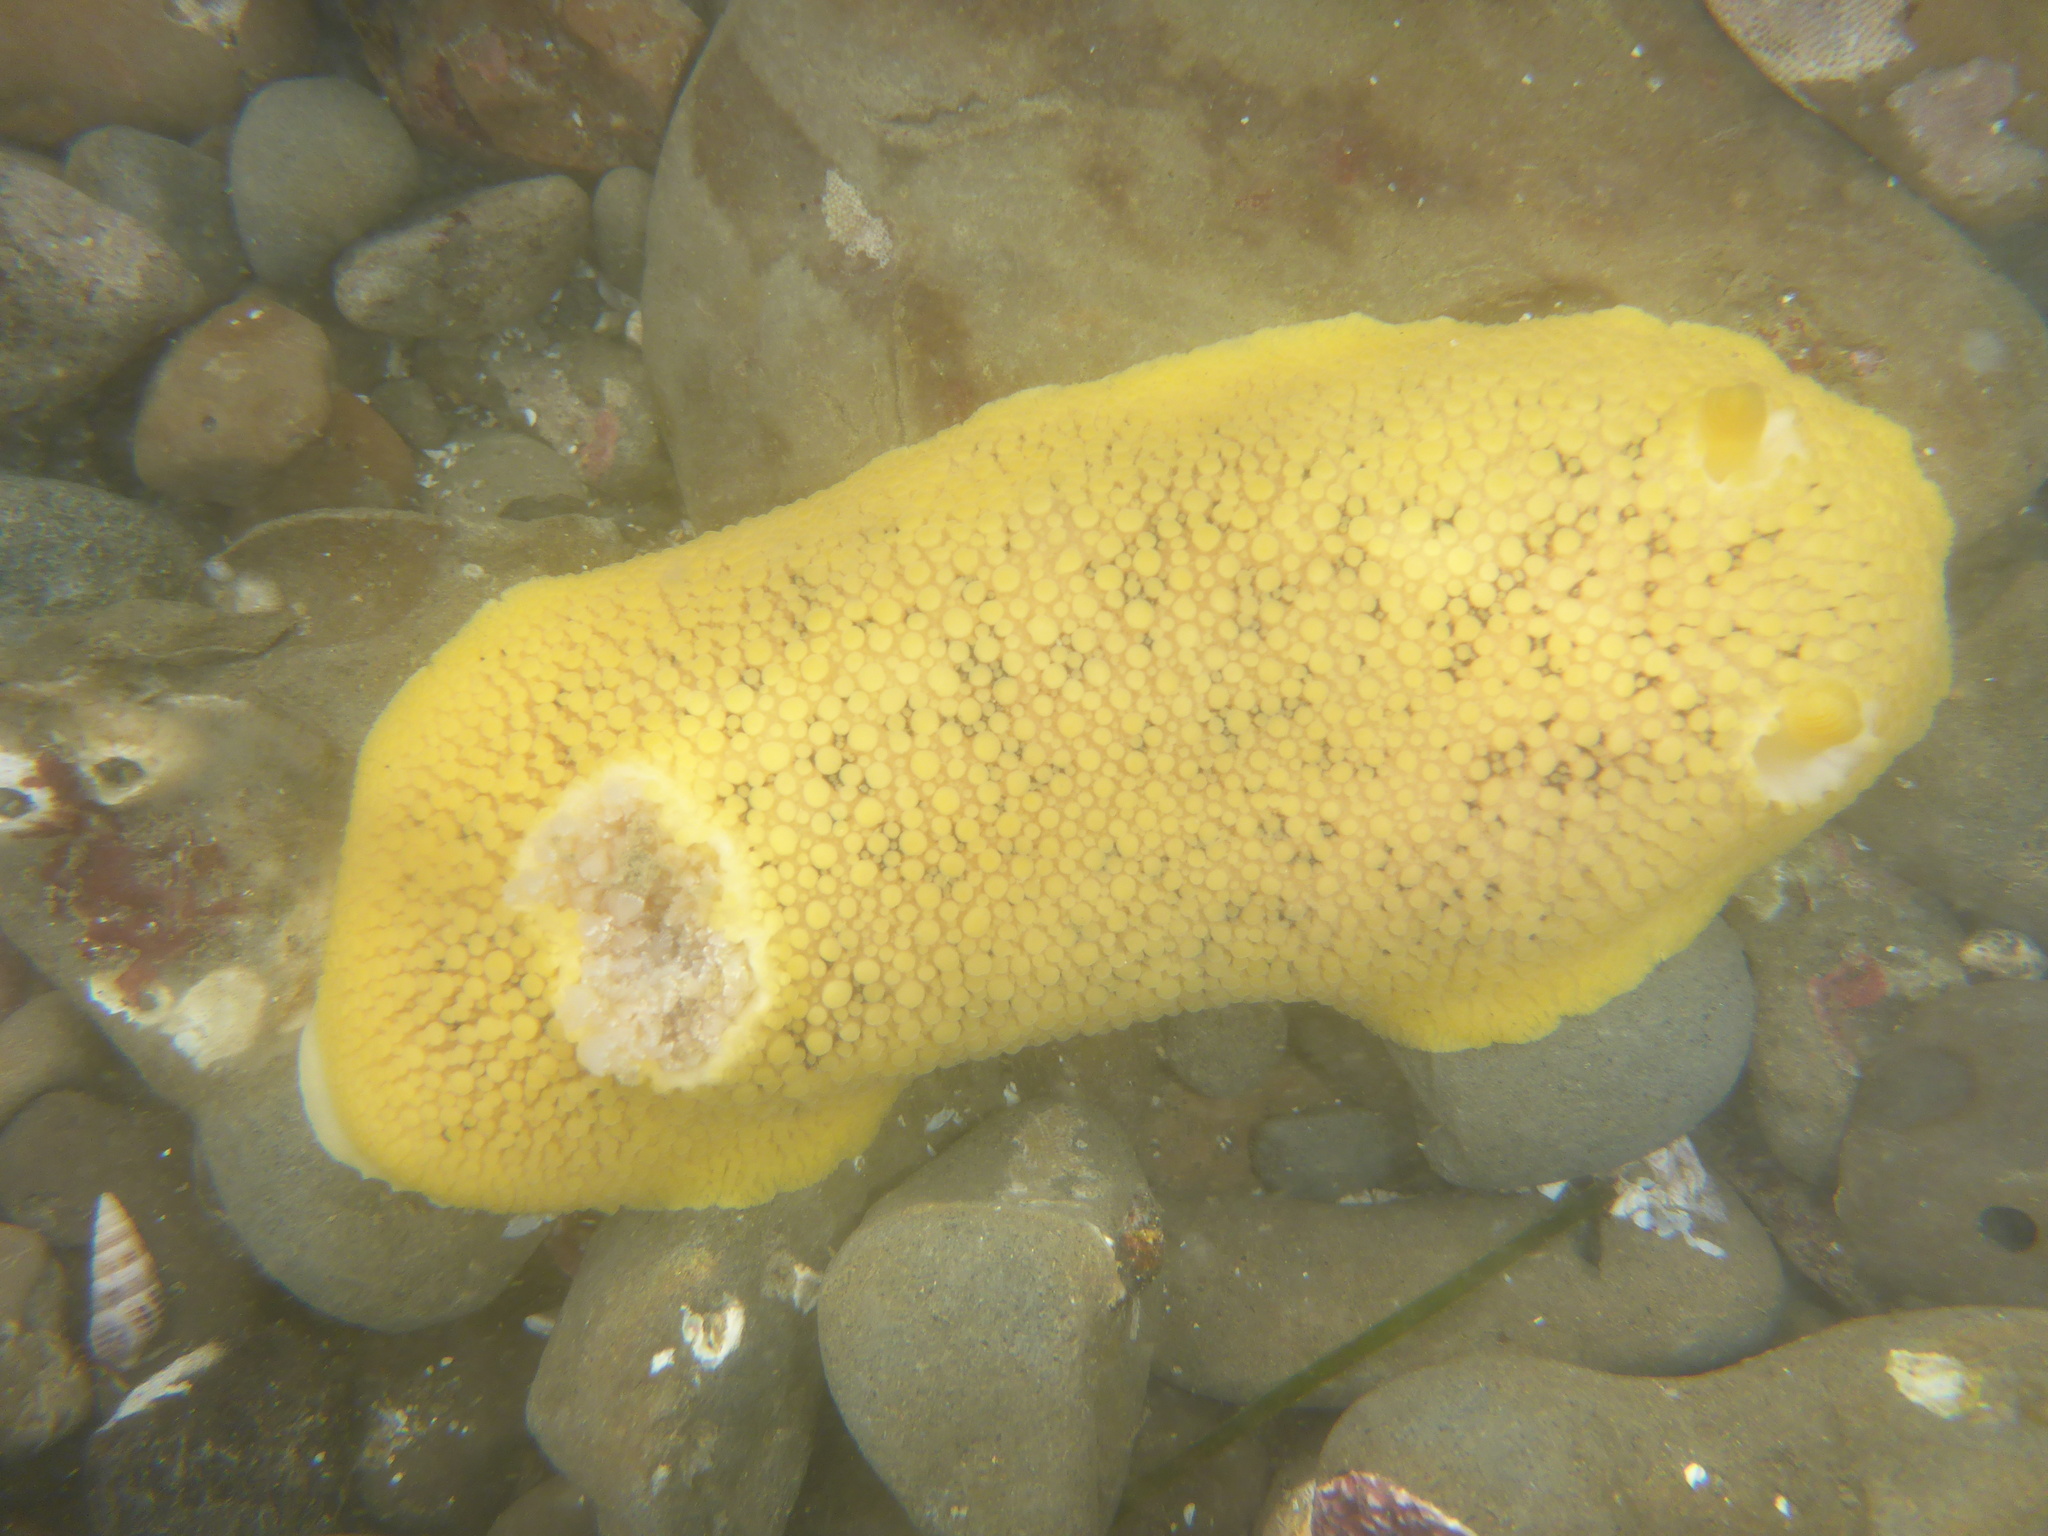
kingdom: Animalia
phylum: Mollusca
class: Gastropoda
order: Nudibranchia
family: Discodorididae
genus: Peltodoris
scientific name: Peltodoris nobilis
